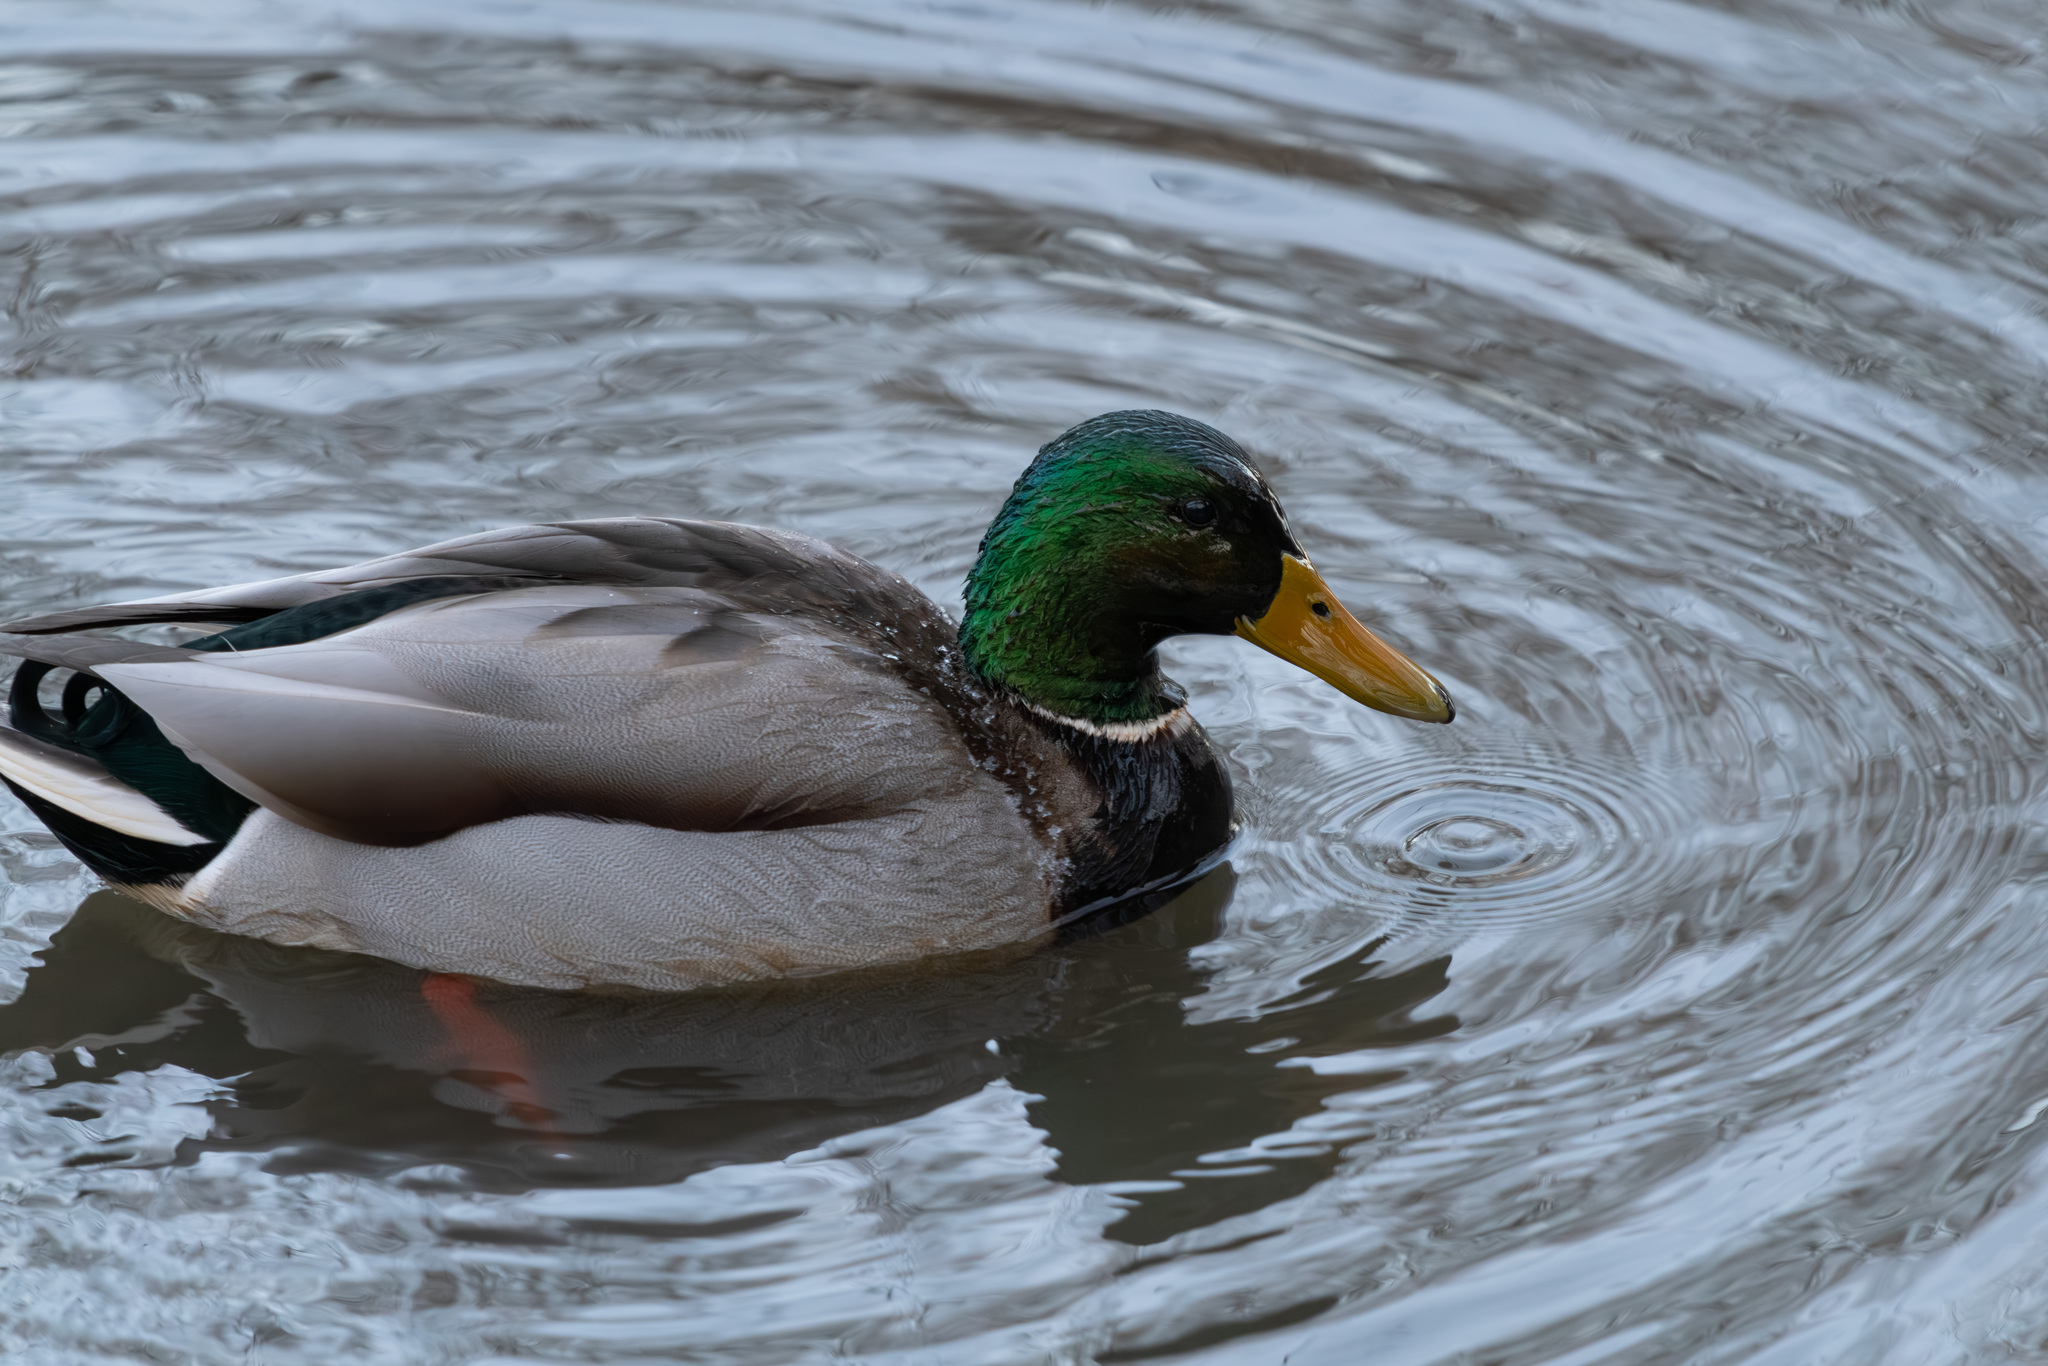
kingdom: Animalia
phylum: Chordata
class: Aves
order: Anseriformes
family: Anatidae
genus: Anas
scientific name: Anas platyrhynchos
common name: Mallard
